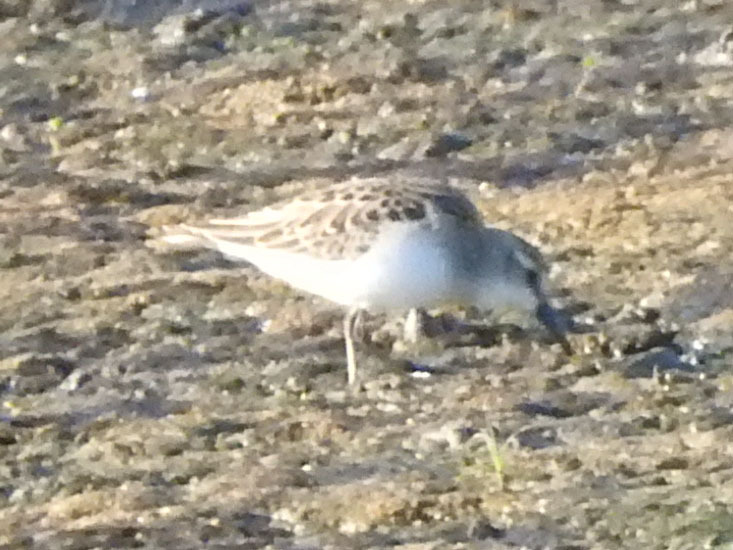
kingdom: Animalia
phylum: Chordata
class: Aves
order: Charadriiformes
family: Scolopacidae
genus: Calidris
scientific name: Calidris minutilla
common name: Least sandpiper
